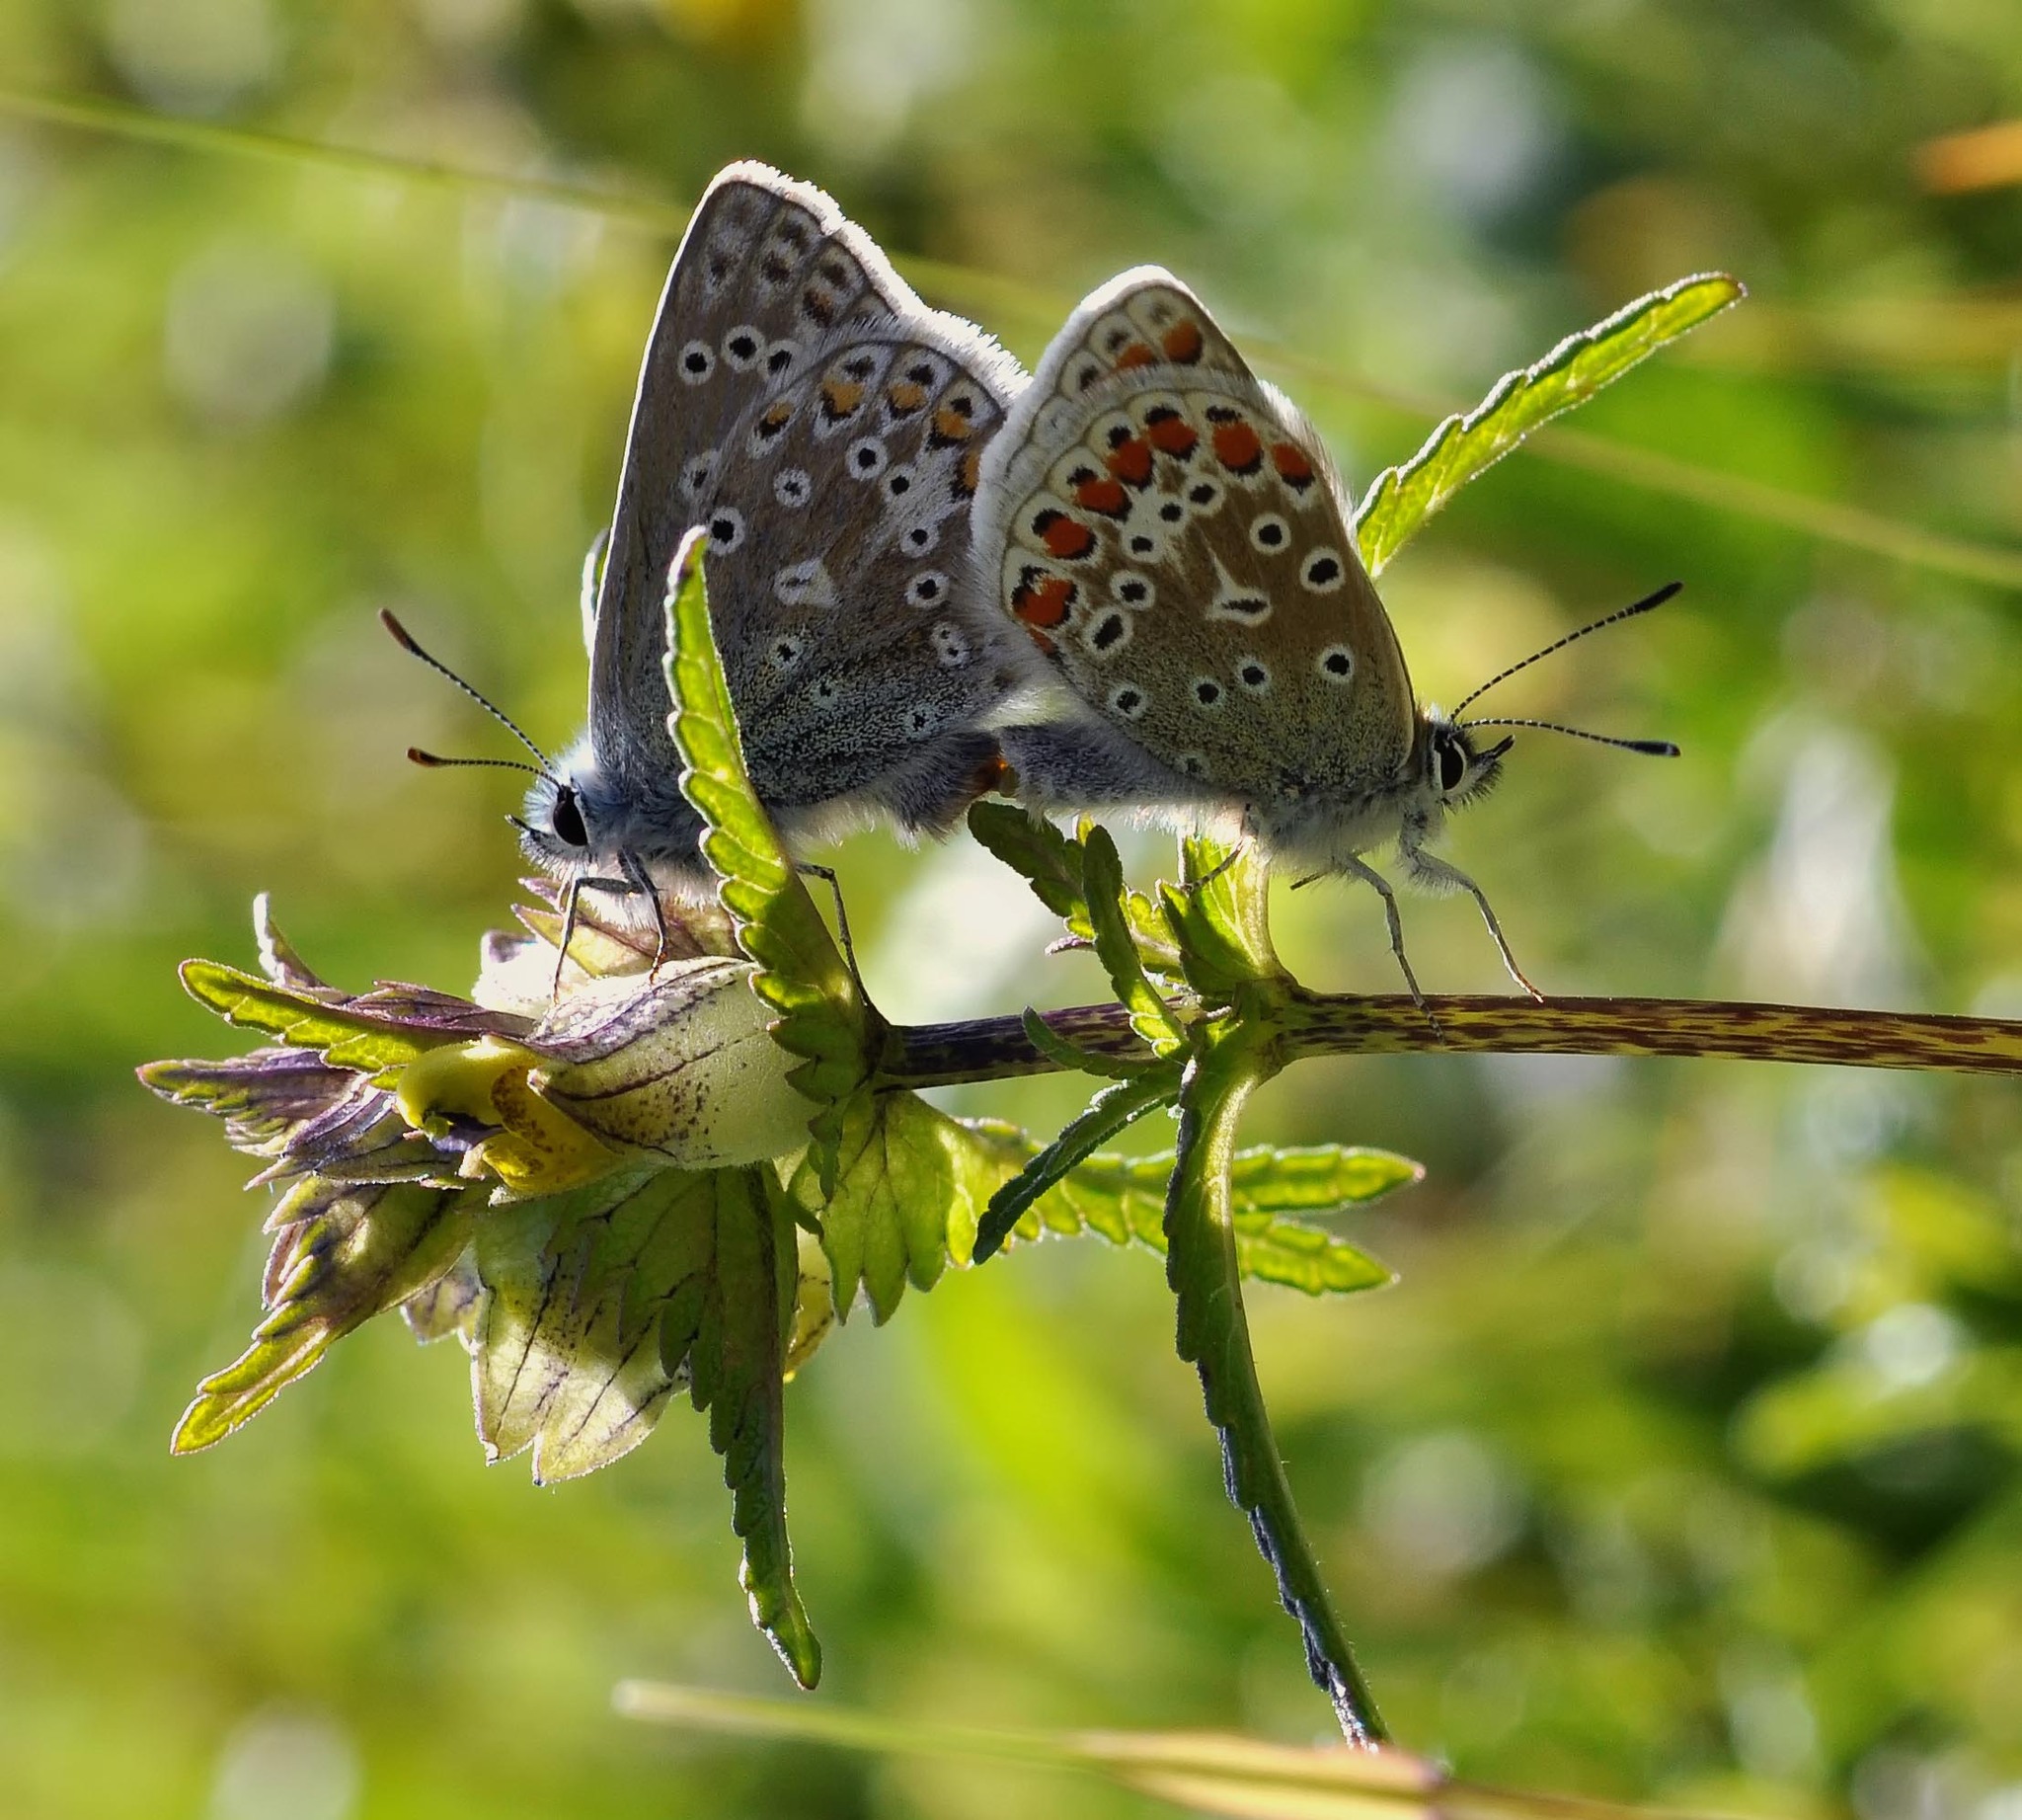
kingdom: Animalia
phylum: Arthropoda
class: Insecta
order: Lepidoptera
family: Lycaenidae
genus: Polyommatus
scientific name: Polyommatus icarus
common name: Common blue
